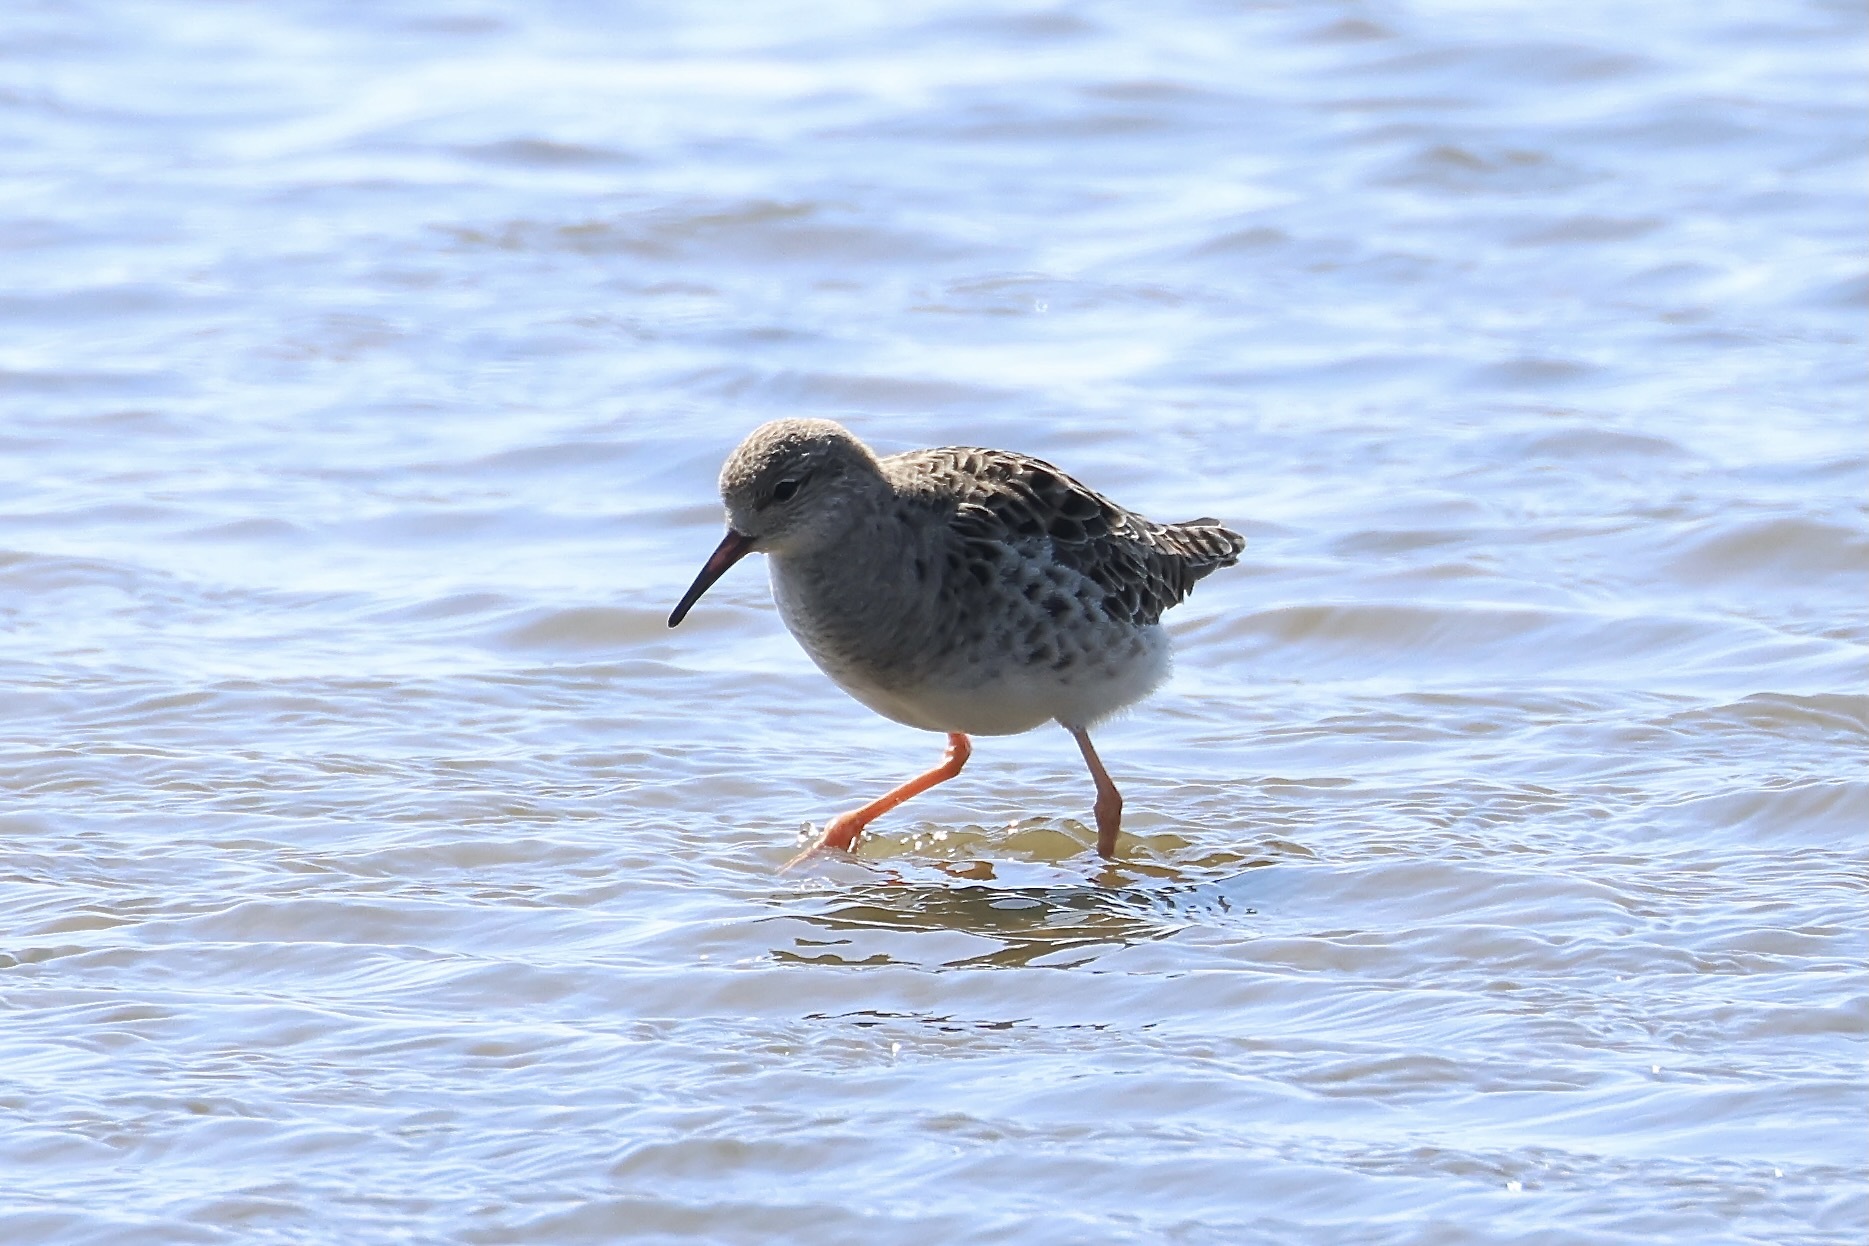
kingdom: Animalia
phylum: Chordata
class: Aves
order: Charadriiformes
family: Scolopacidae
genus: Calidris
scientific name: Calidris pugnax
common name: Ruff
